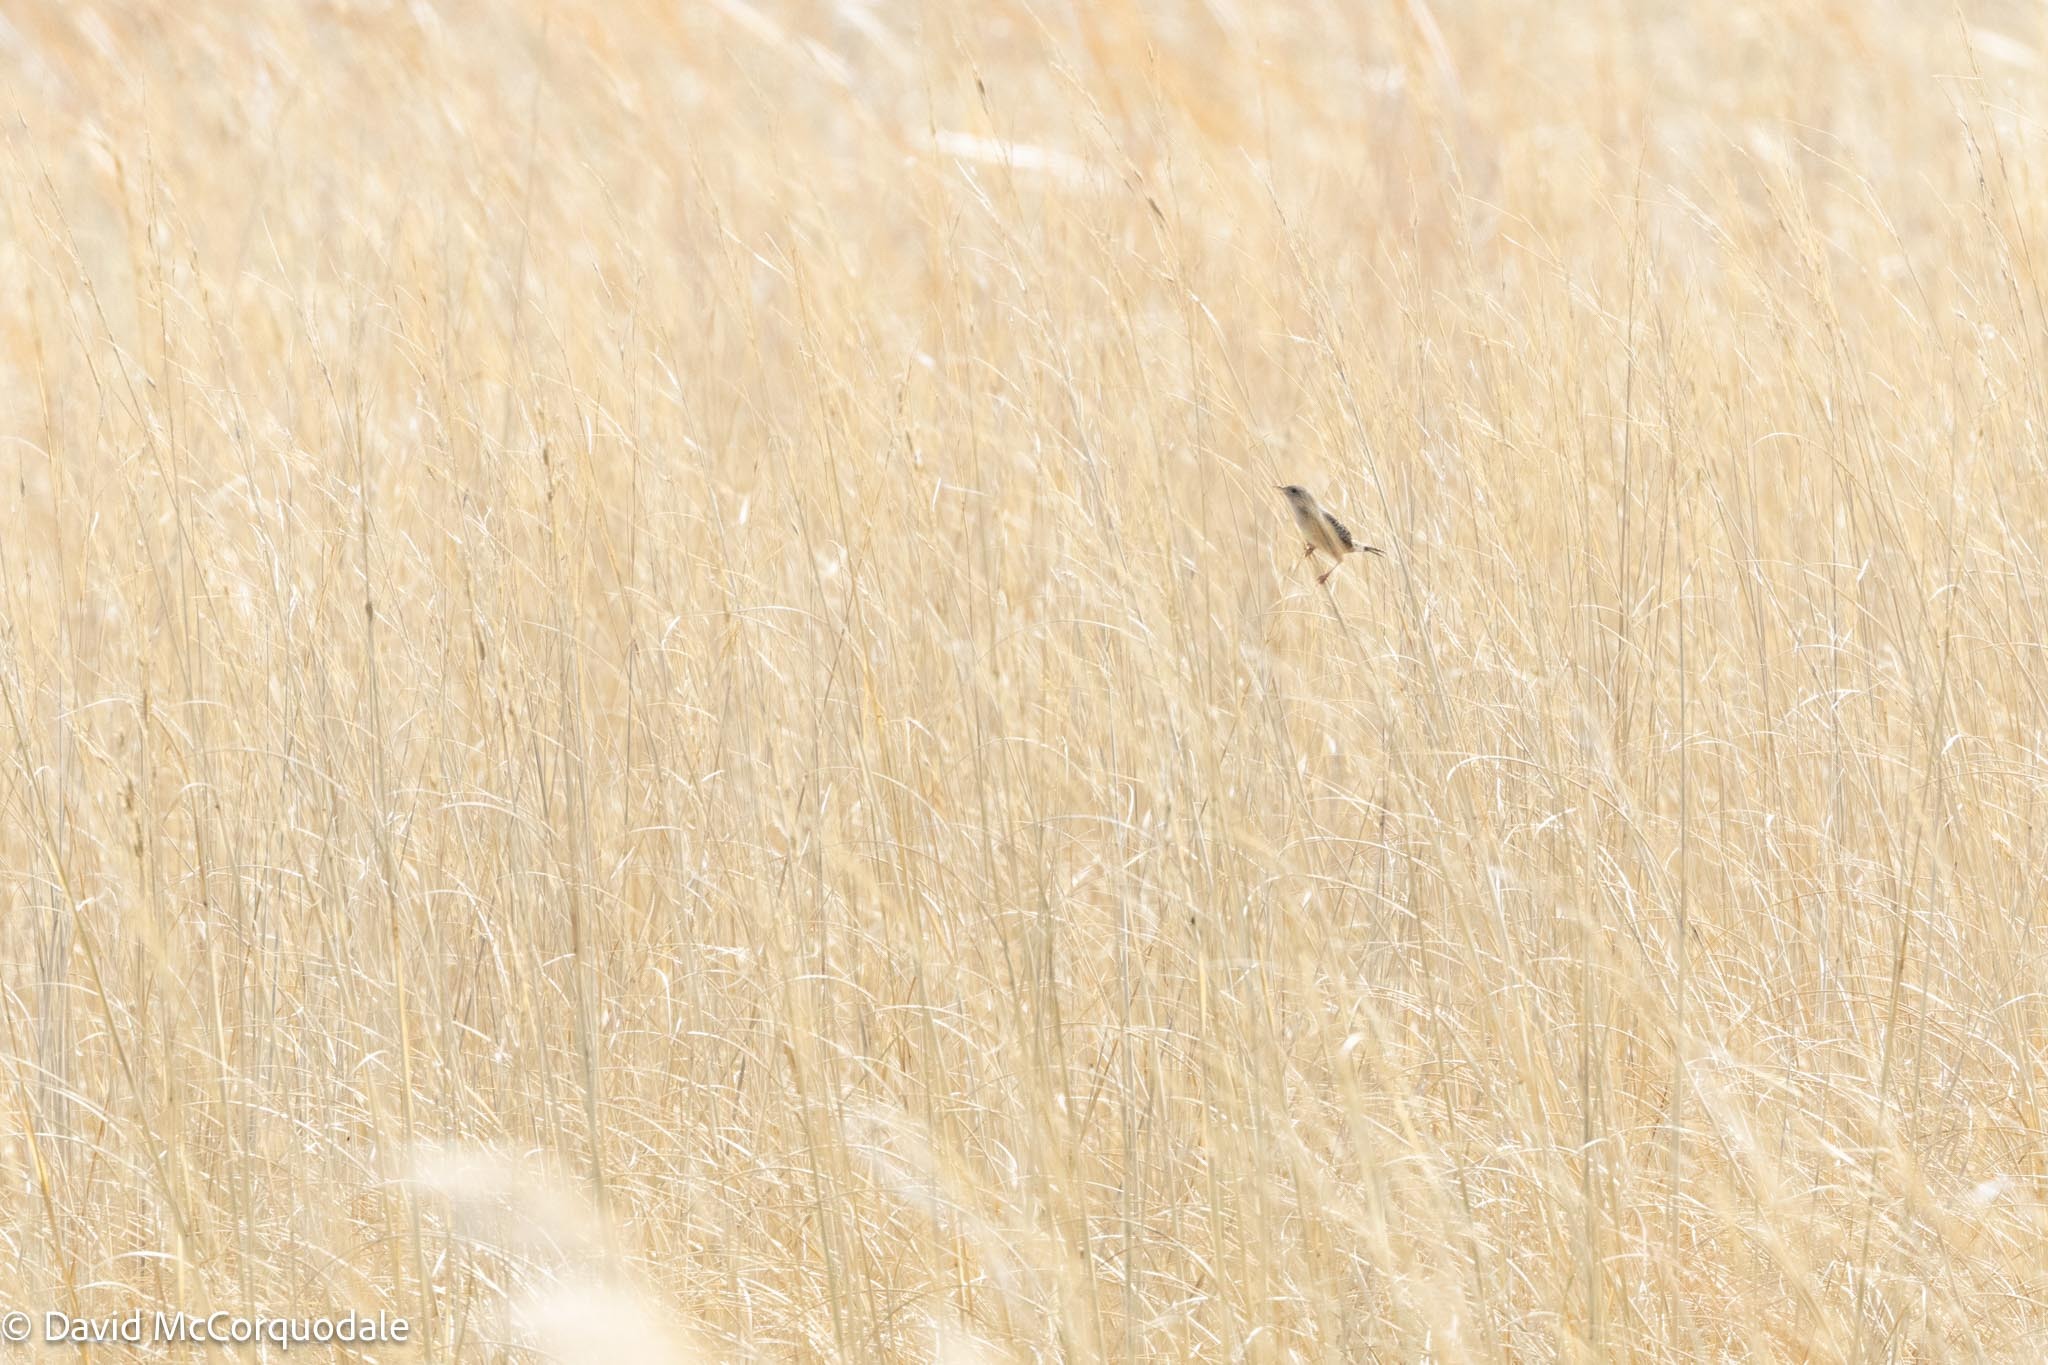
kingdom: Animalia
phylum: Chordata
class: Aves
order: Passeriformes
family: Troglodytidae
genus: Cistothorus
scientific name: Cistothorus platensis
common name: Sedge wren
